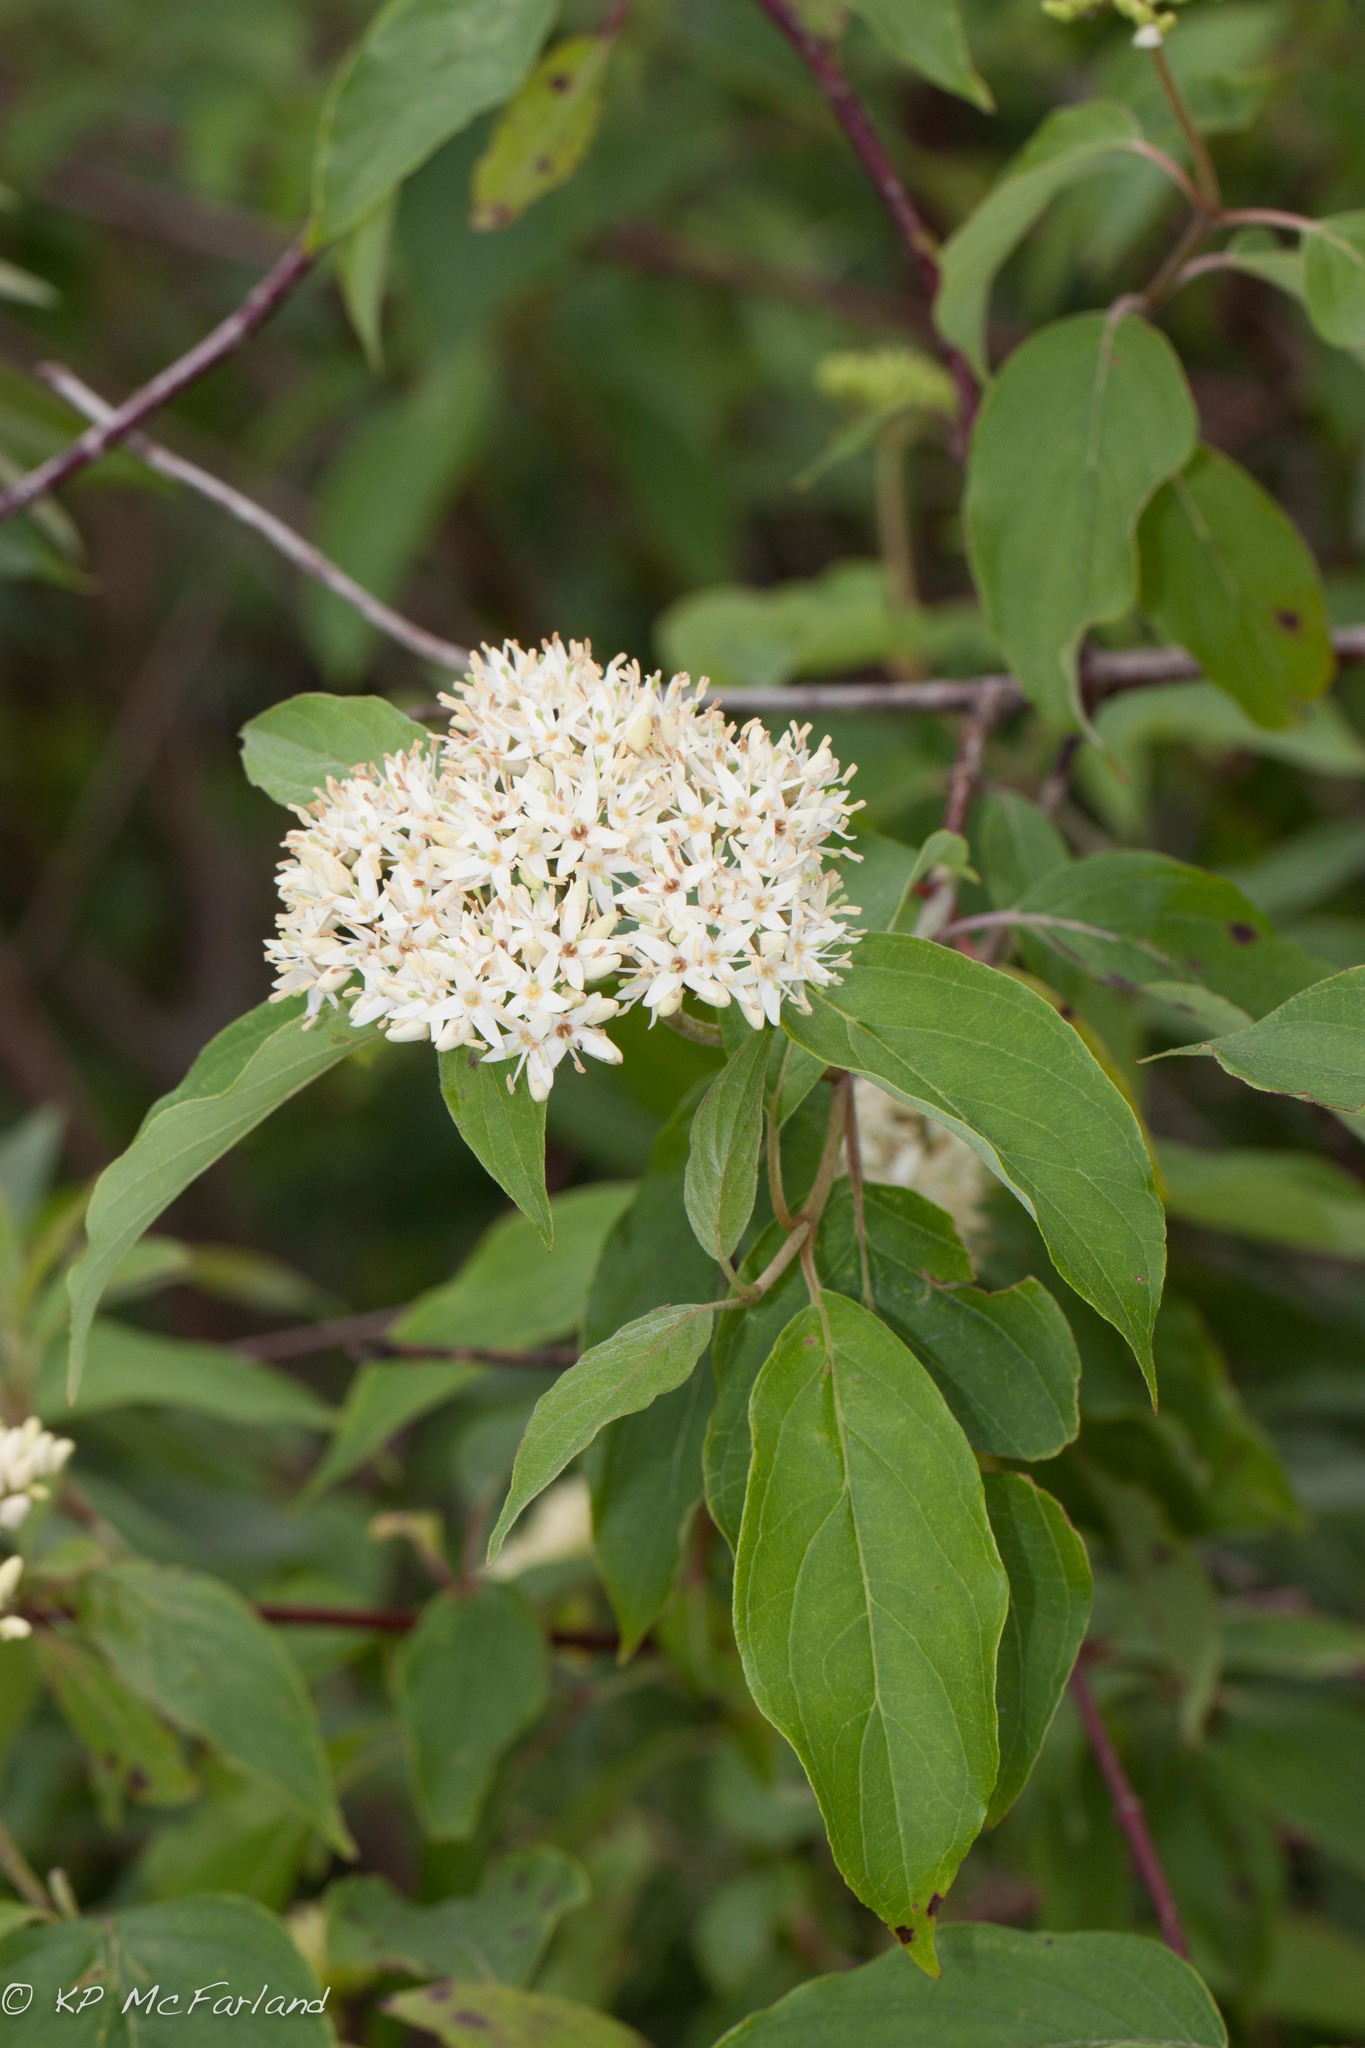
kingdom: Plantae
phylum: Tracheophyta
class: Magnoliopsida
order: Cornales
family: Cornaceae
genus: Cornus
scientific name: Cornus amomum
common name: Silky dogwood
